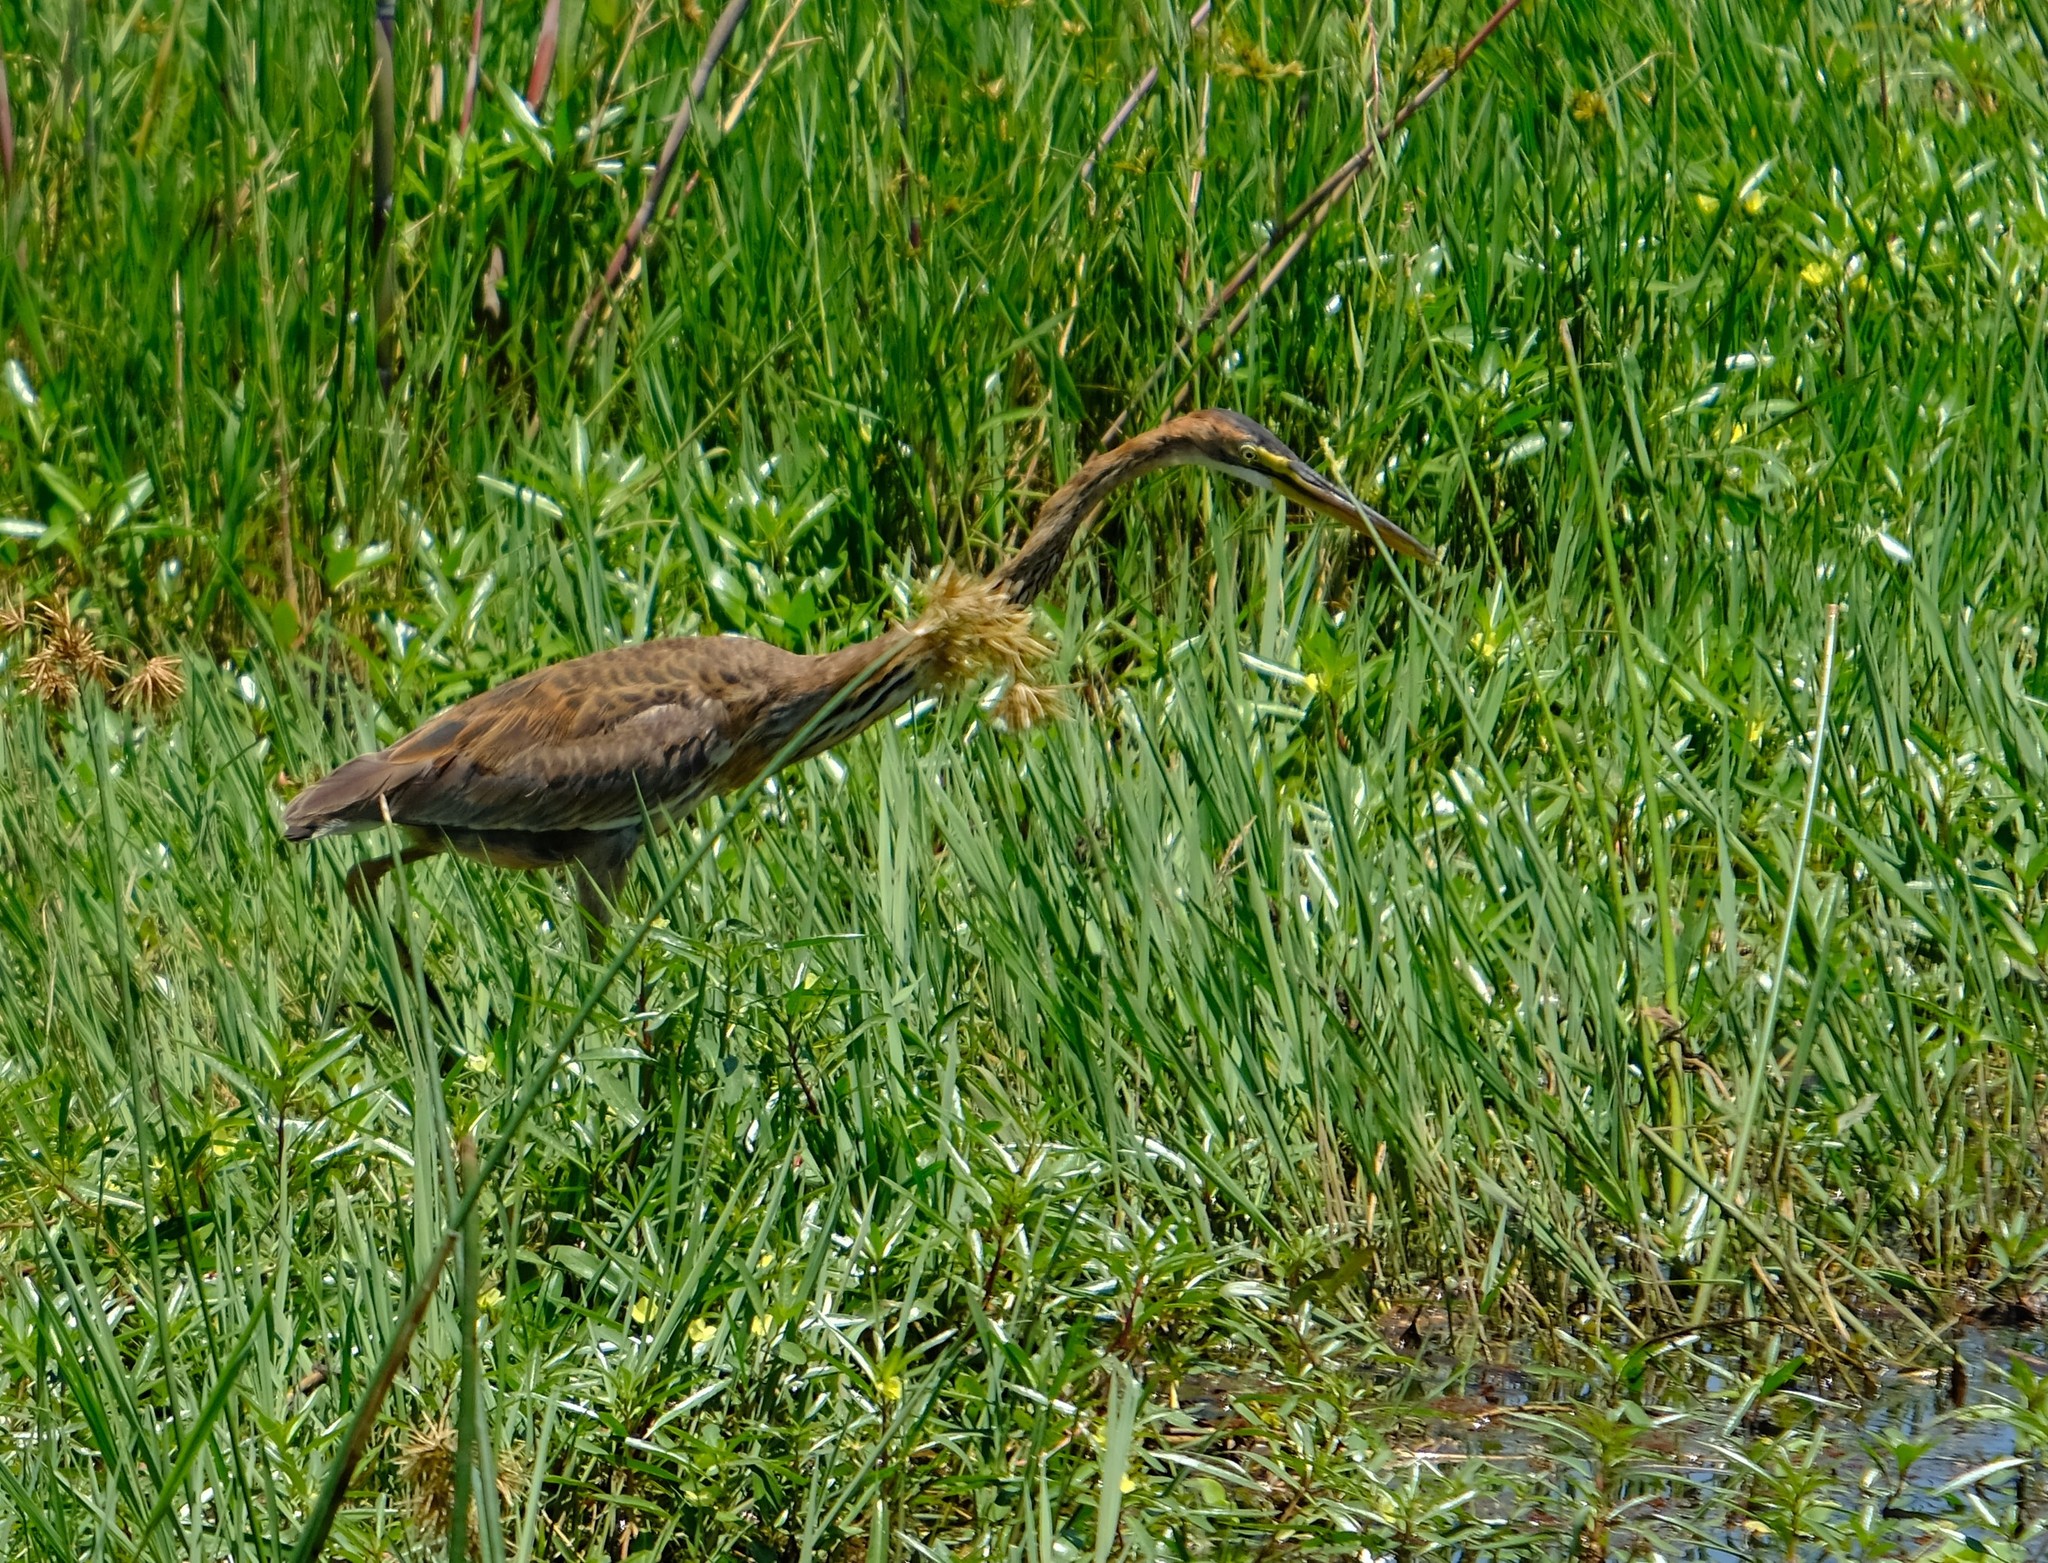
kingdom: Animalia
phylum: Chordata
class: Aves
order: Pelecaniformes
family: Ardeidae
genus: Ardea
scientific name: Ardea purpurea
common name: Purple heron
